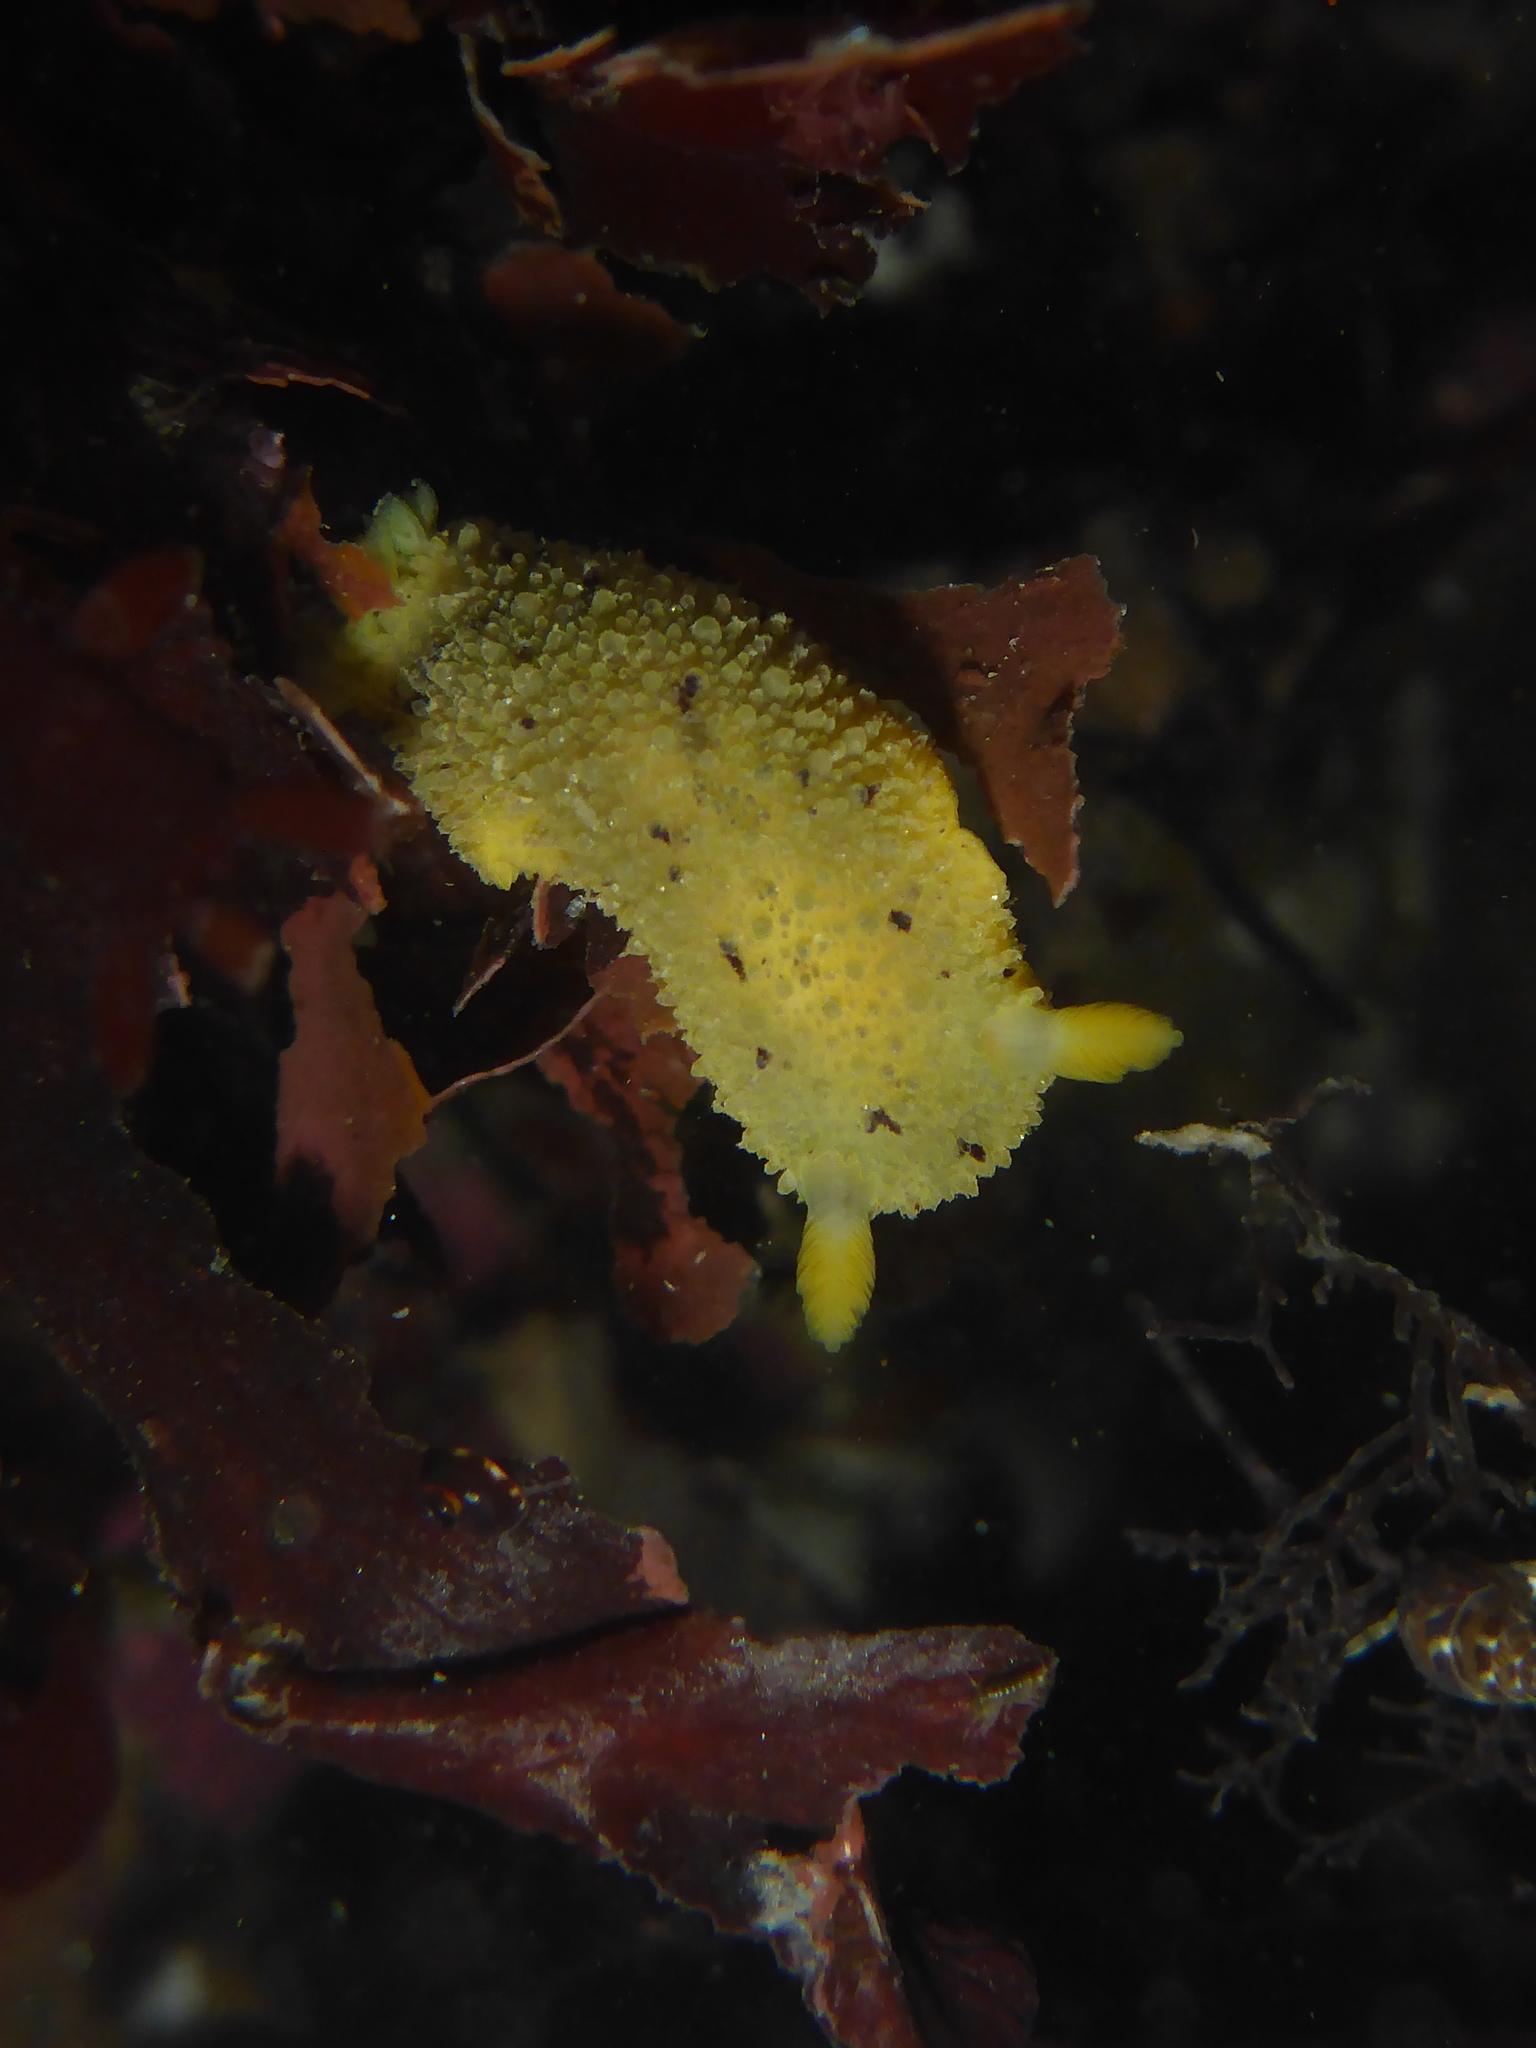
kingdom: Animalia
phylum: Mollusca
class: Gastropoda
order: Nudibranchia
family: Dorididae
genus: Doris
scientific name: Doris montereyensis
